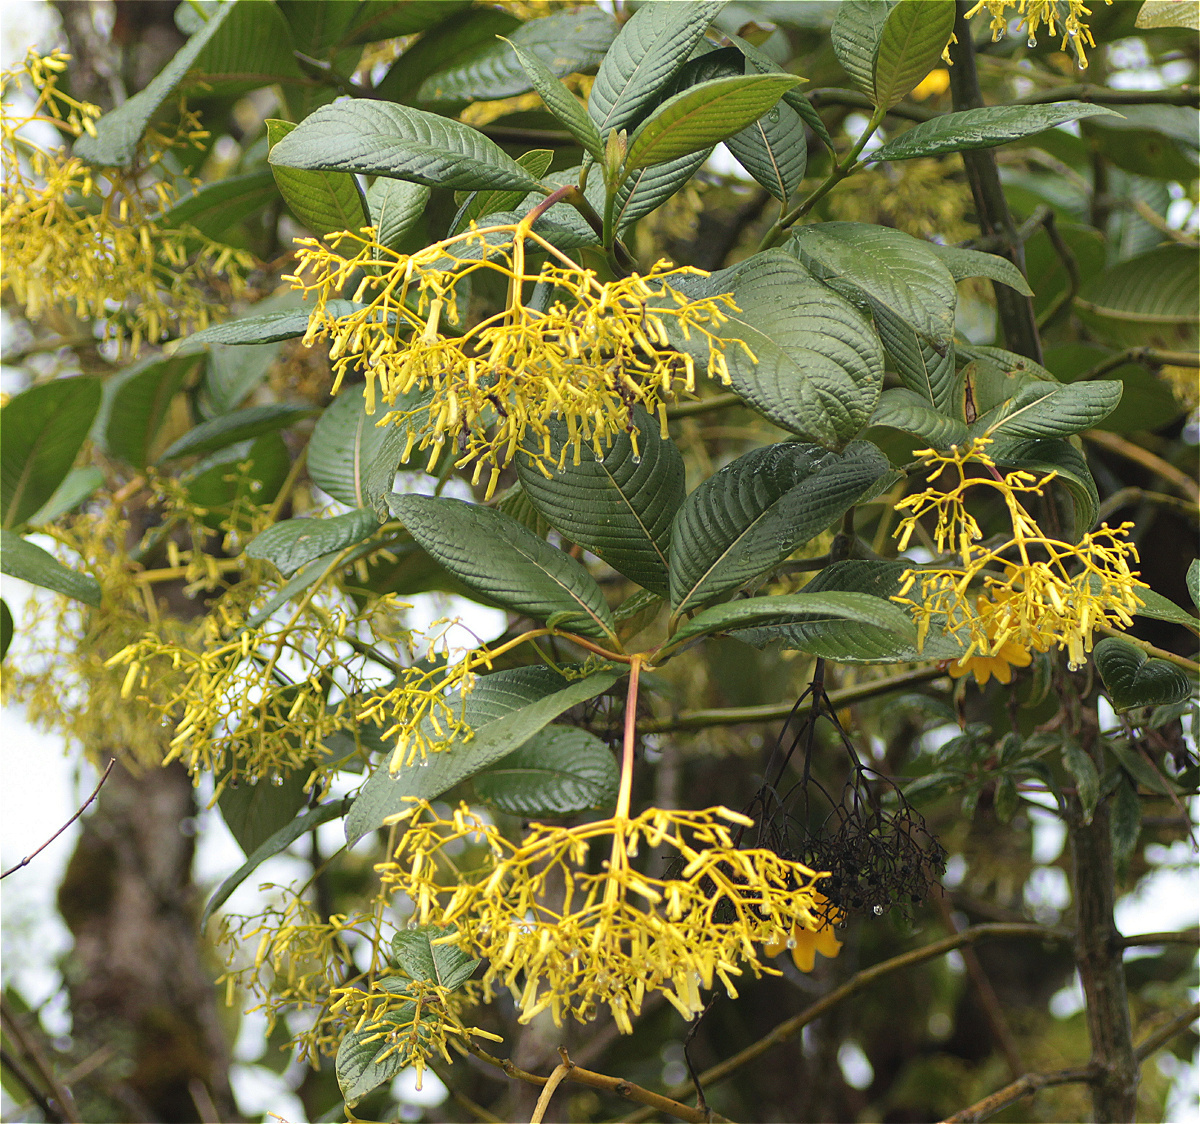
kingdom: Plantae
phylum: Tracheophyta
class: Magnoliopsida
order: Gentianales
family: Rubiaceae
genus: Palicourea
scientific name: Palicourea lineariflora
